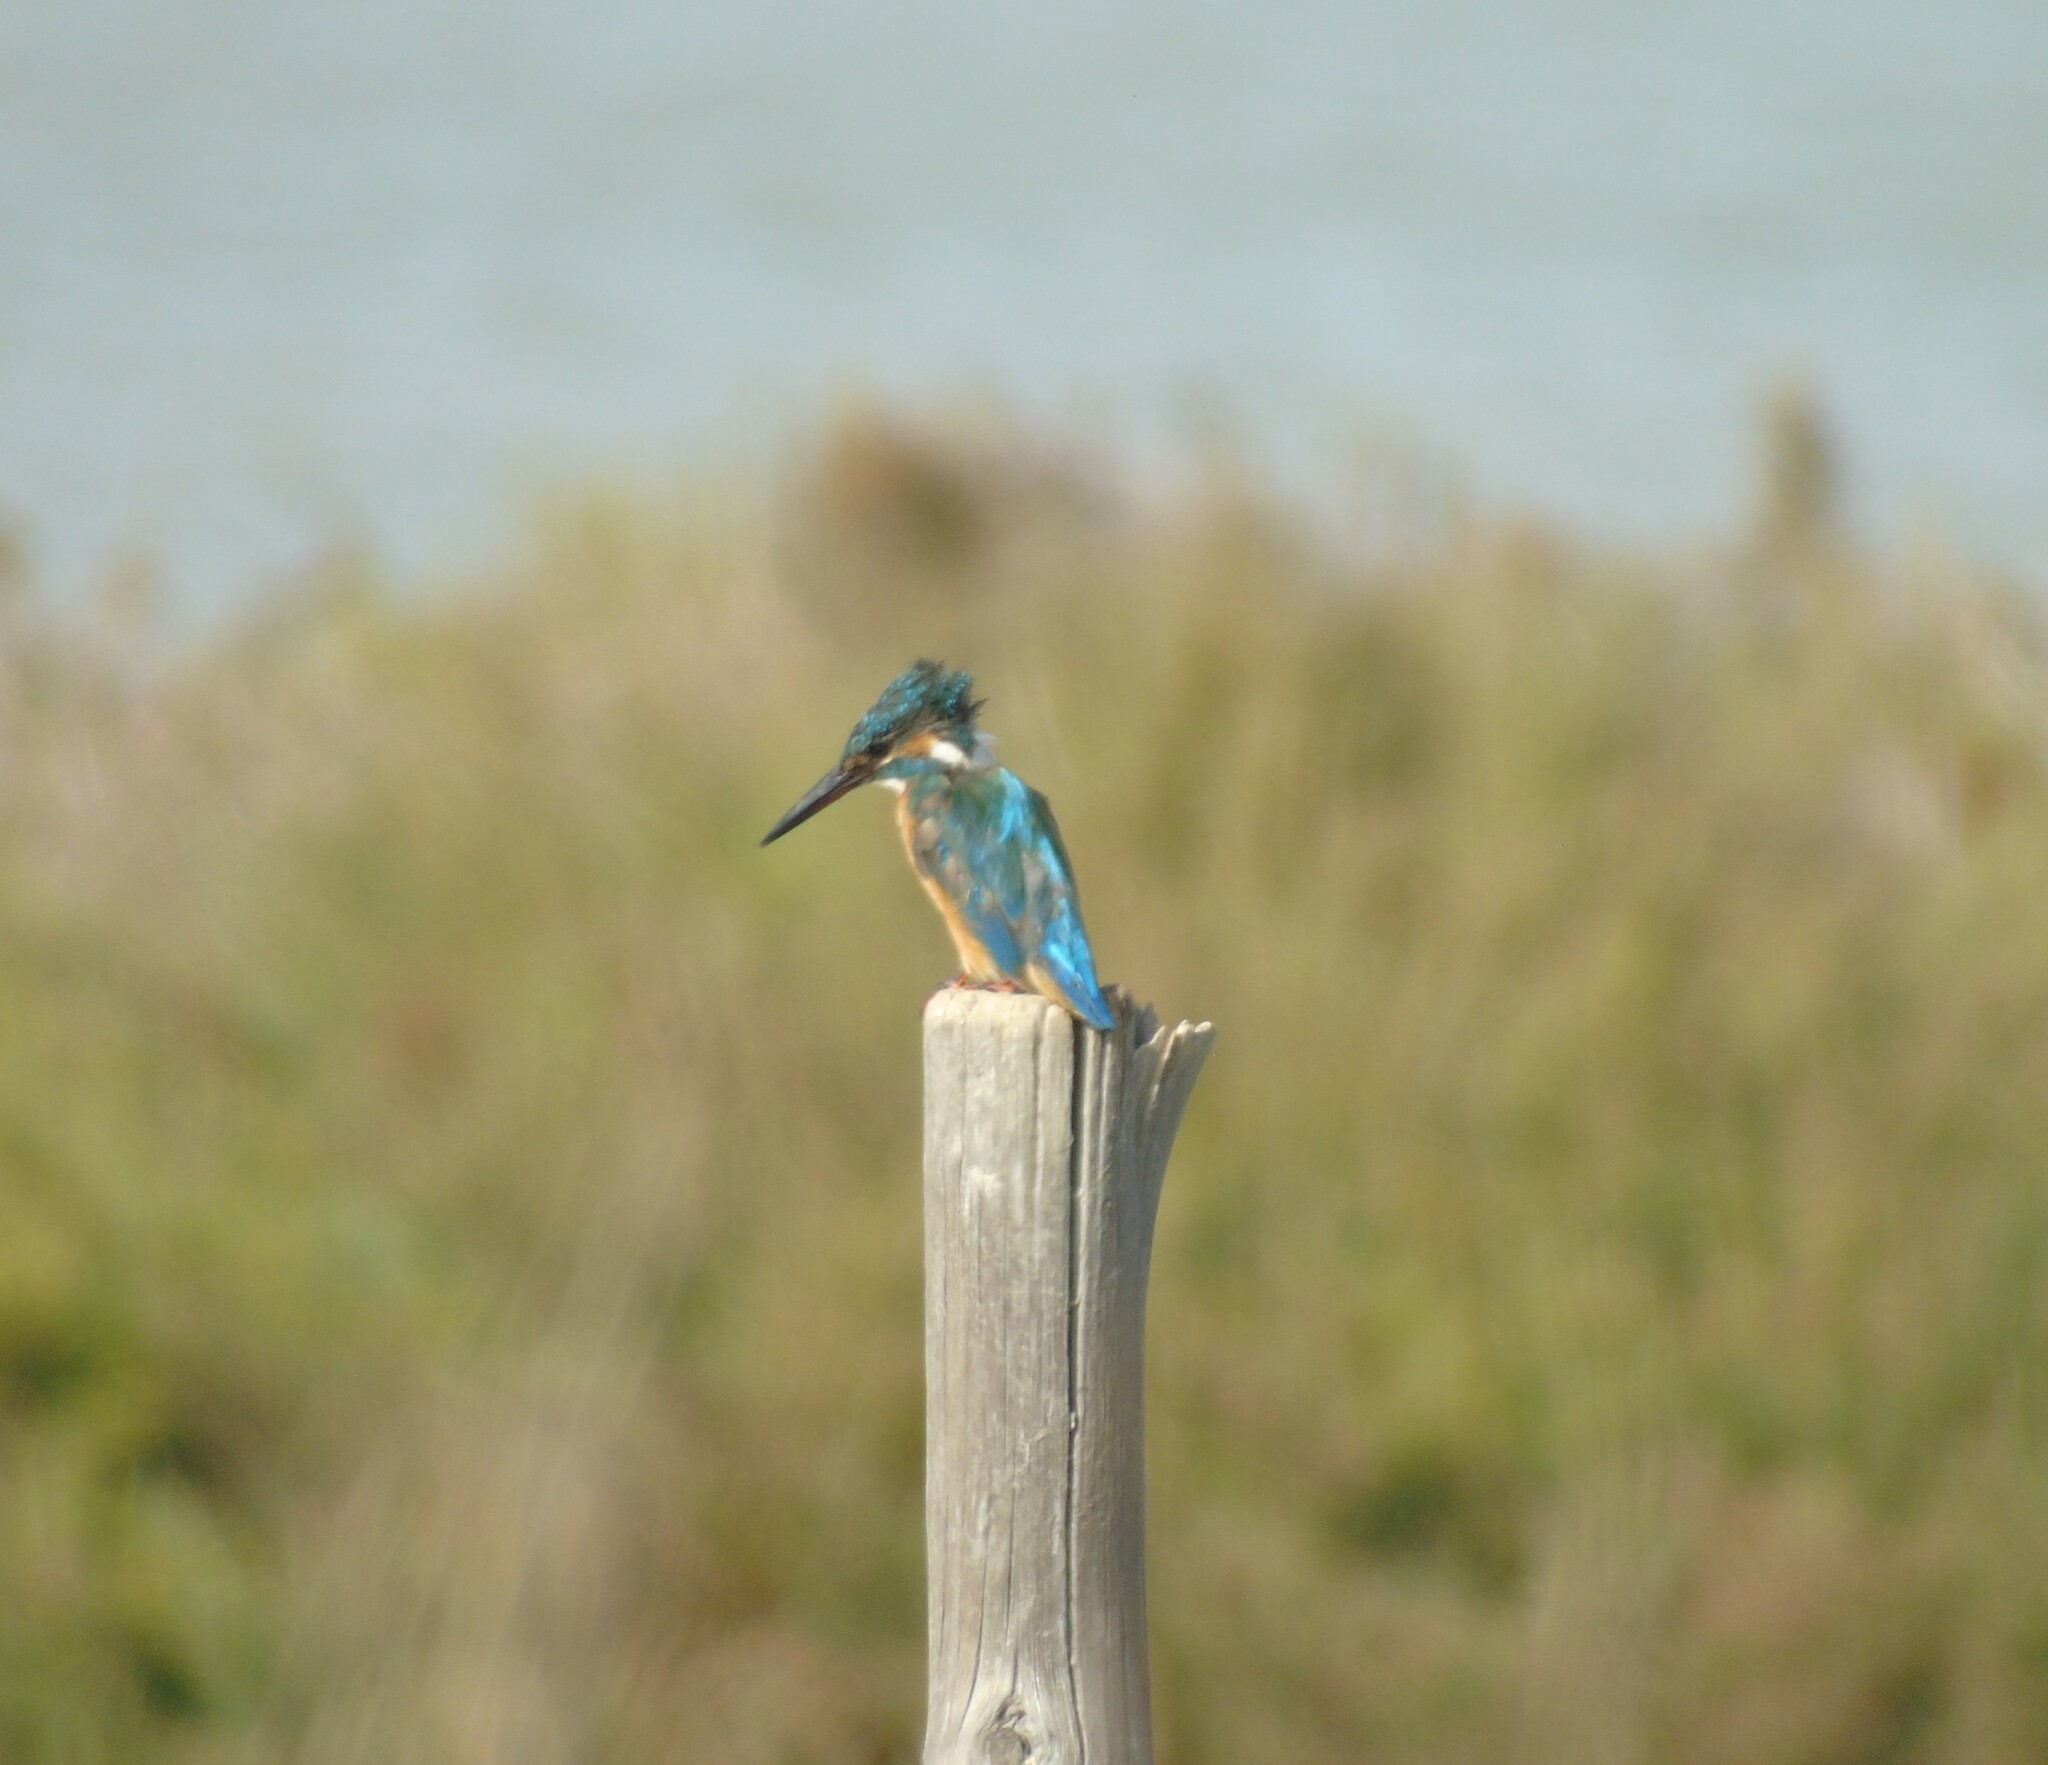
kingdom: Animalia
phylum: Chordata
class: Aves
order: Coraciiformes
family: Alcedinidae
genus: Alcedo
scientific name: Alcedo atthis
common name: Common kingfisher
